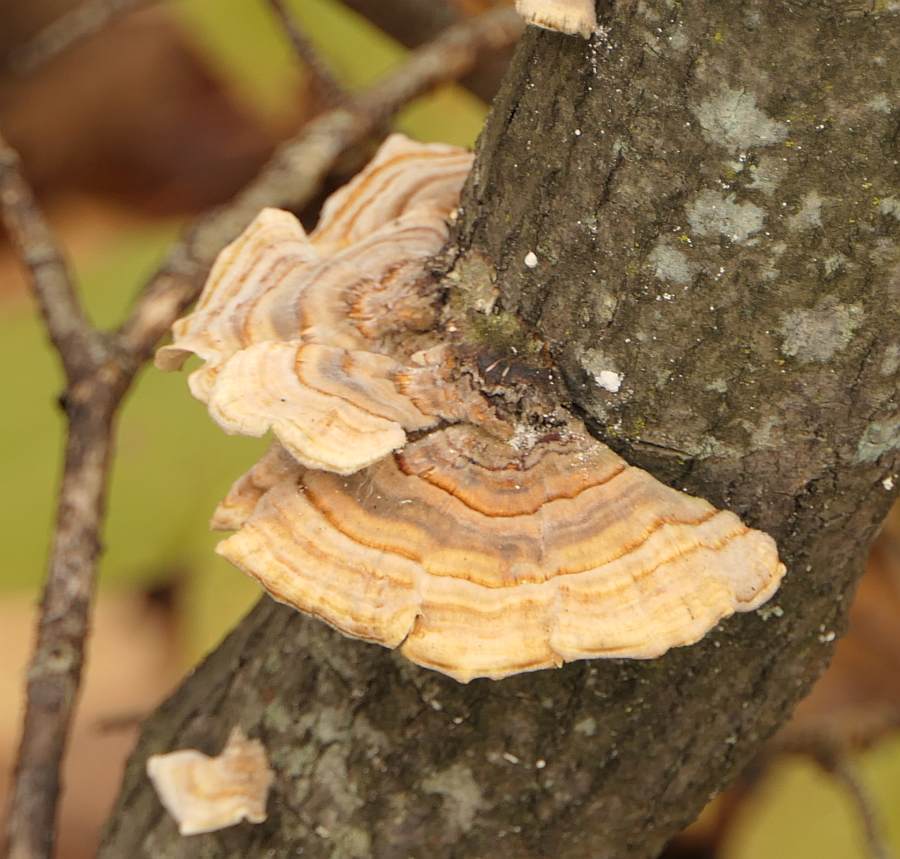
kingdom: Fungi
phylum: Basidiomycota
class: Agaricomycetes
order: Polyporales
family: Polyporaceae
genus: Trametes
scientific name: Trametes versicolor
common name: Turkeytail
